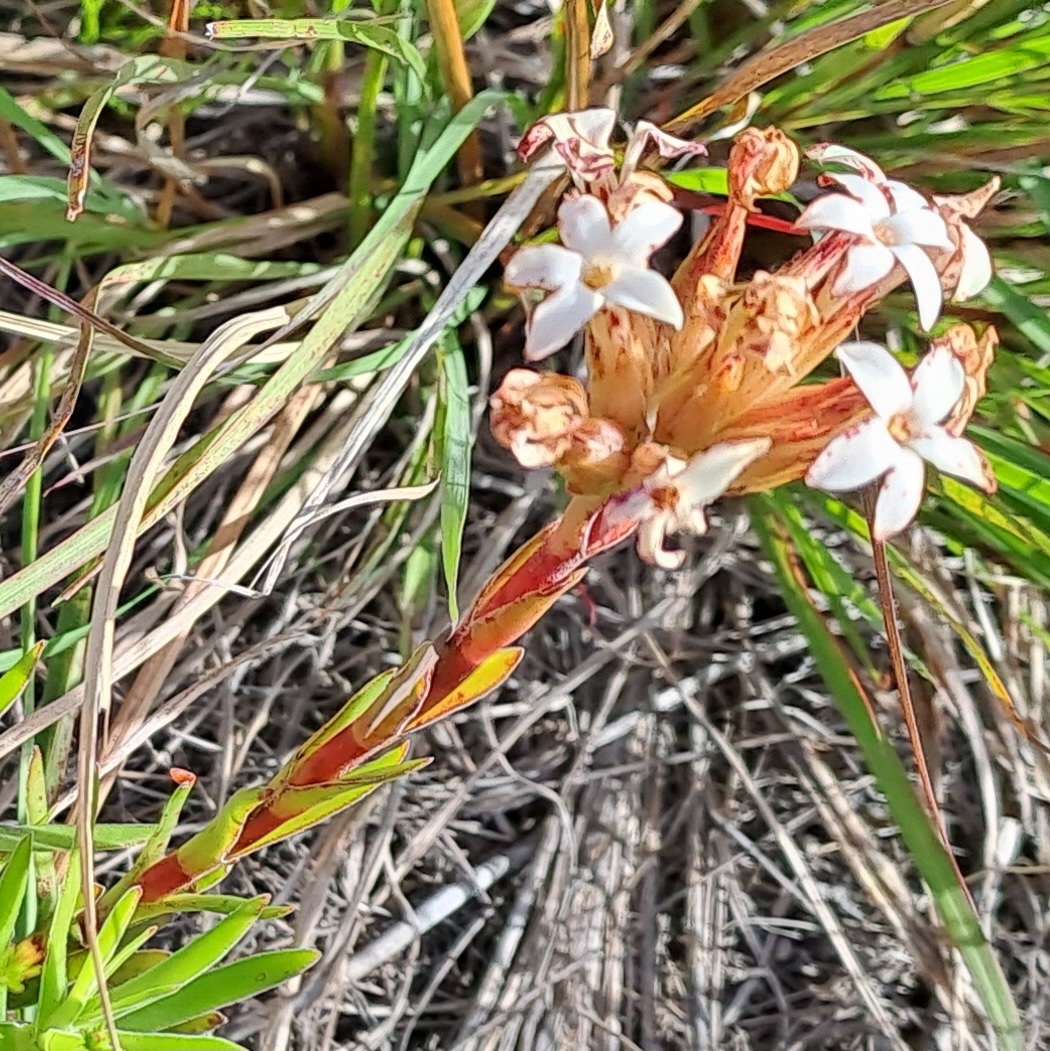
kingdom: Plantae
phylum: Tracheophyta
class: Magnoliopsida
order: Saxifragales
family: Crassulaceae
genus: Crassula
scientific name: Crassula fascicularis
